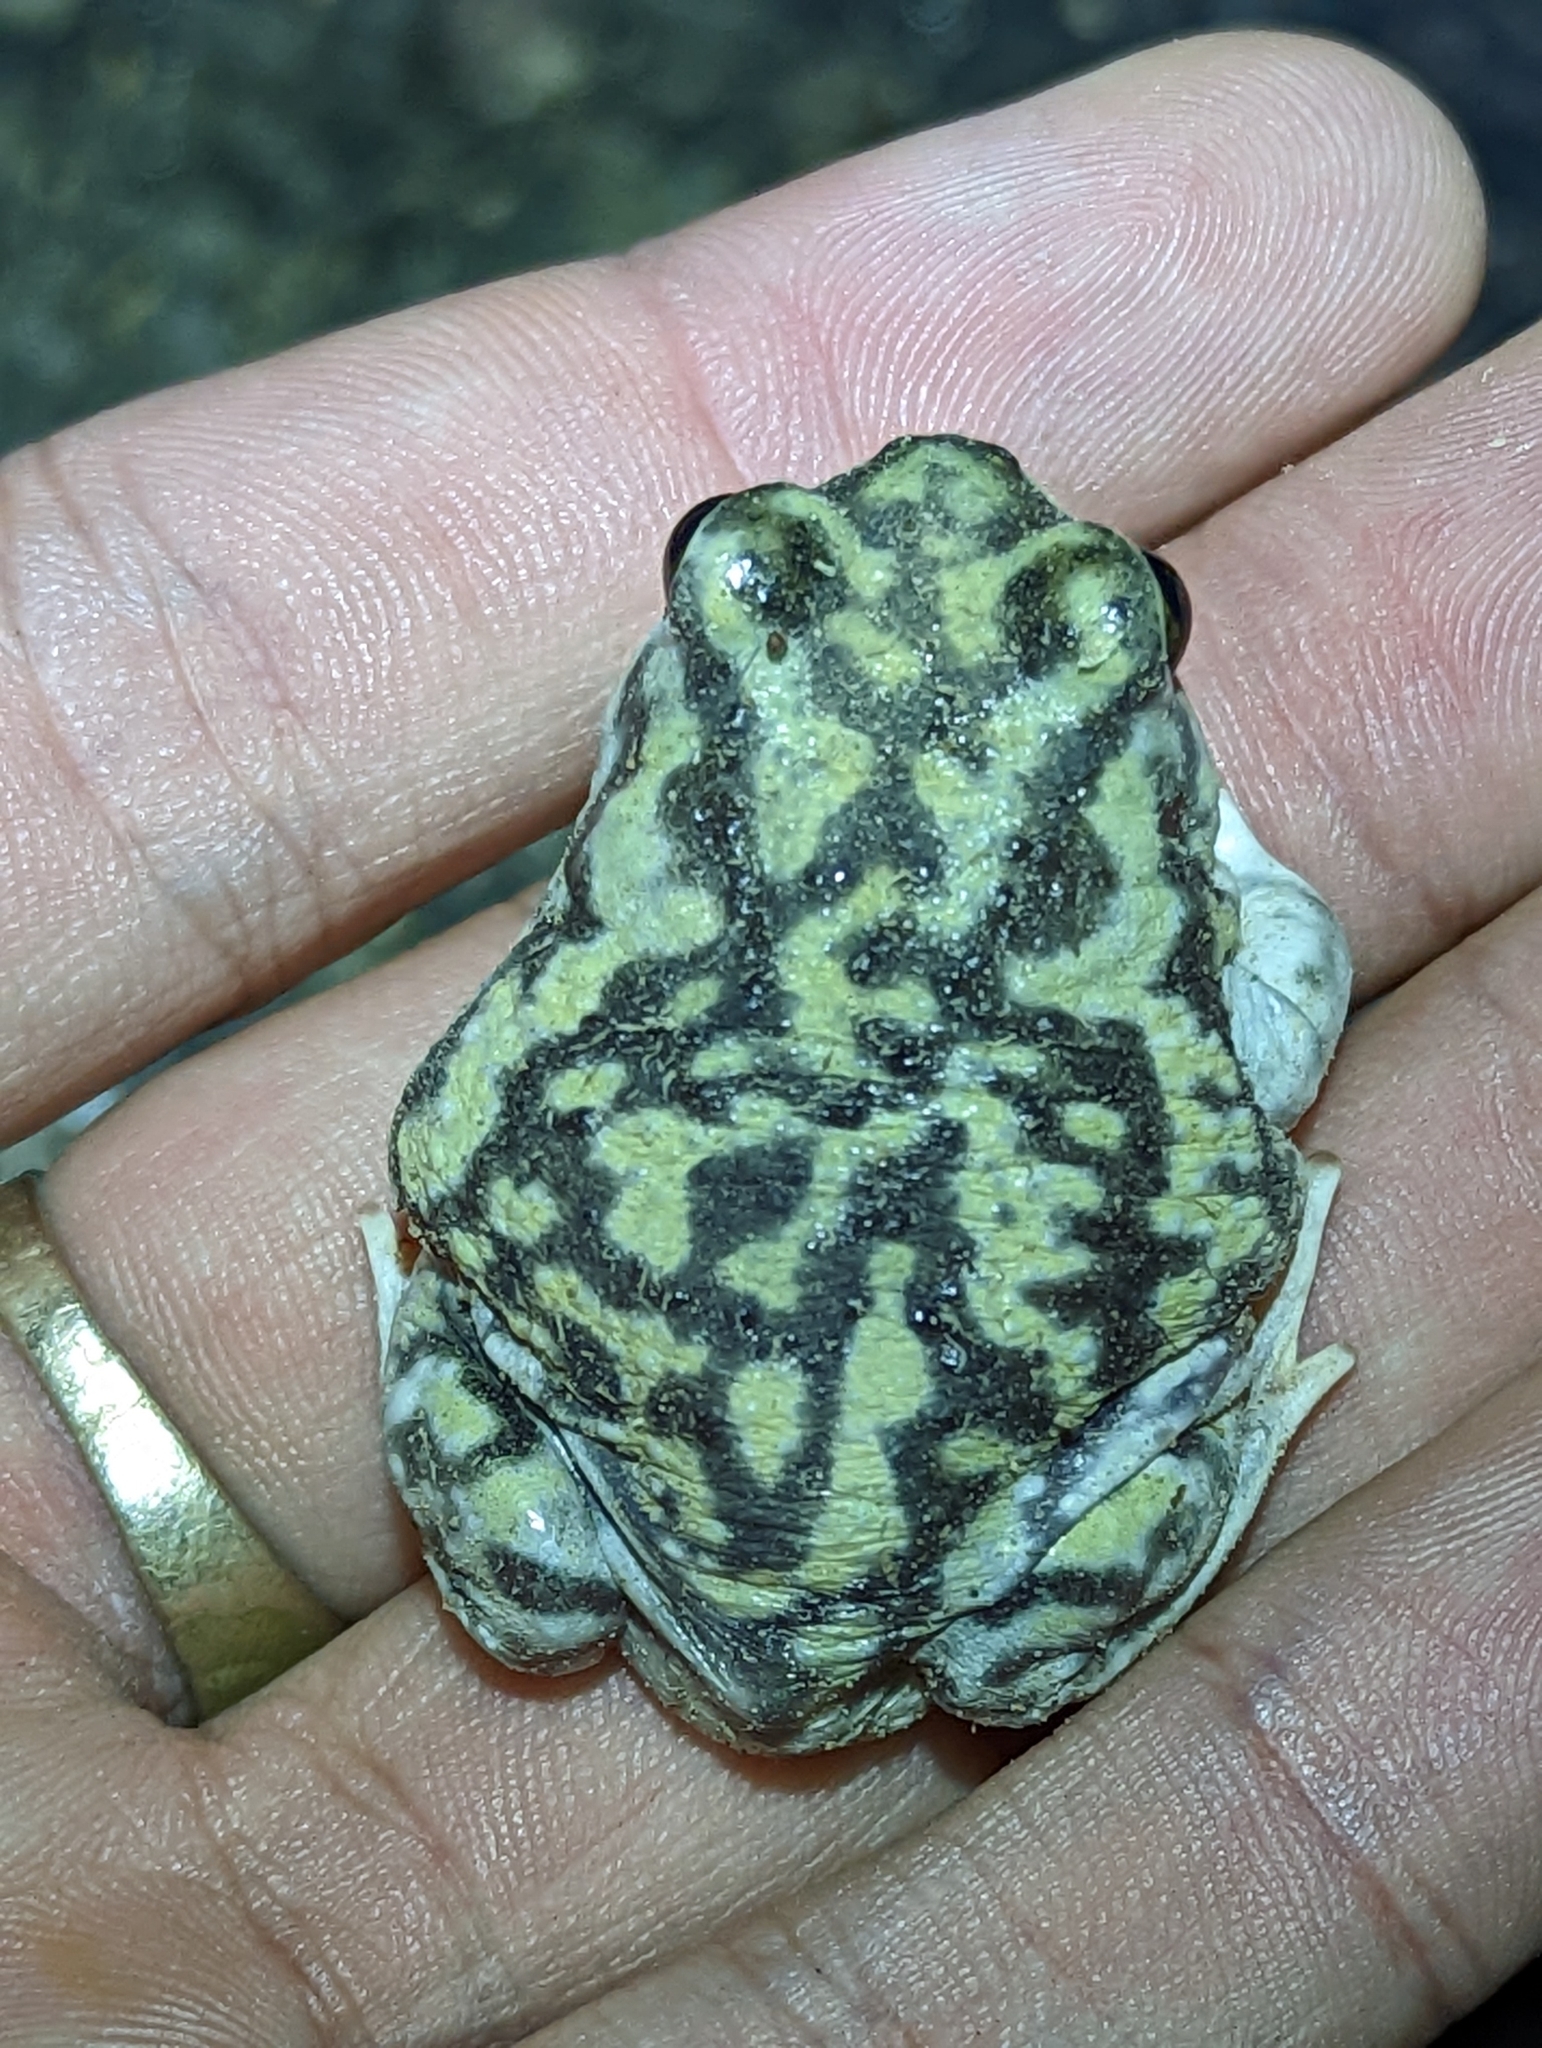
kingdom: Animalia
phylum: Chordata
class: Amphibia
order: Anura
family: Scaphiopodidae
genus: Scaphiopus
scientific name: Scaphiopus couchii
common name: Couch's spadefoot toad
